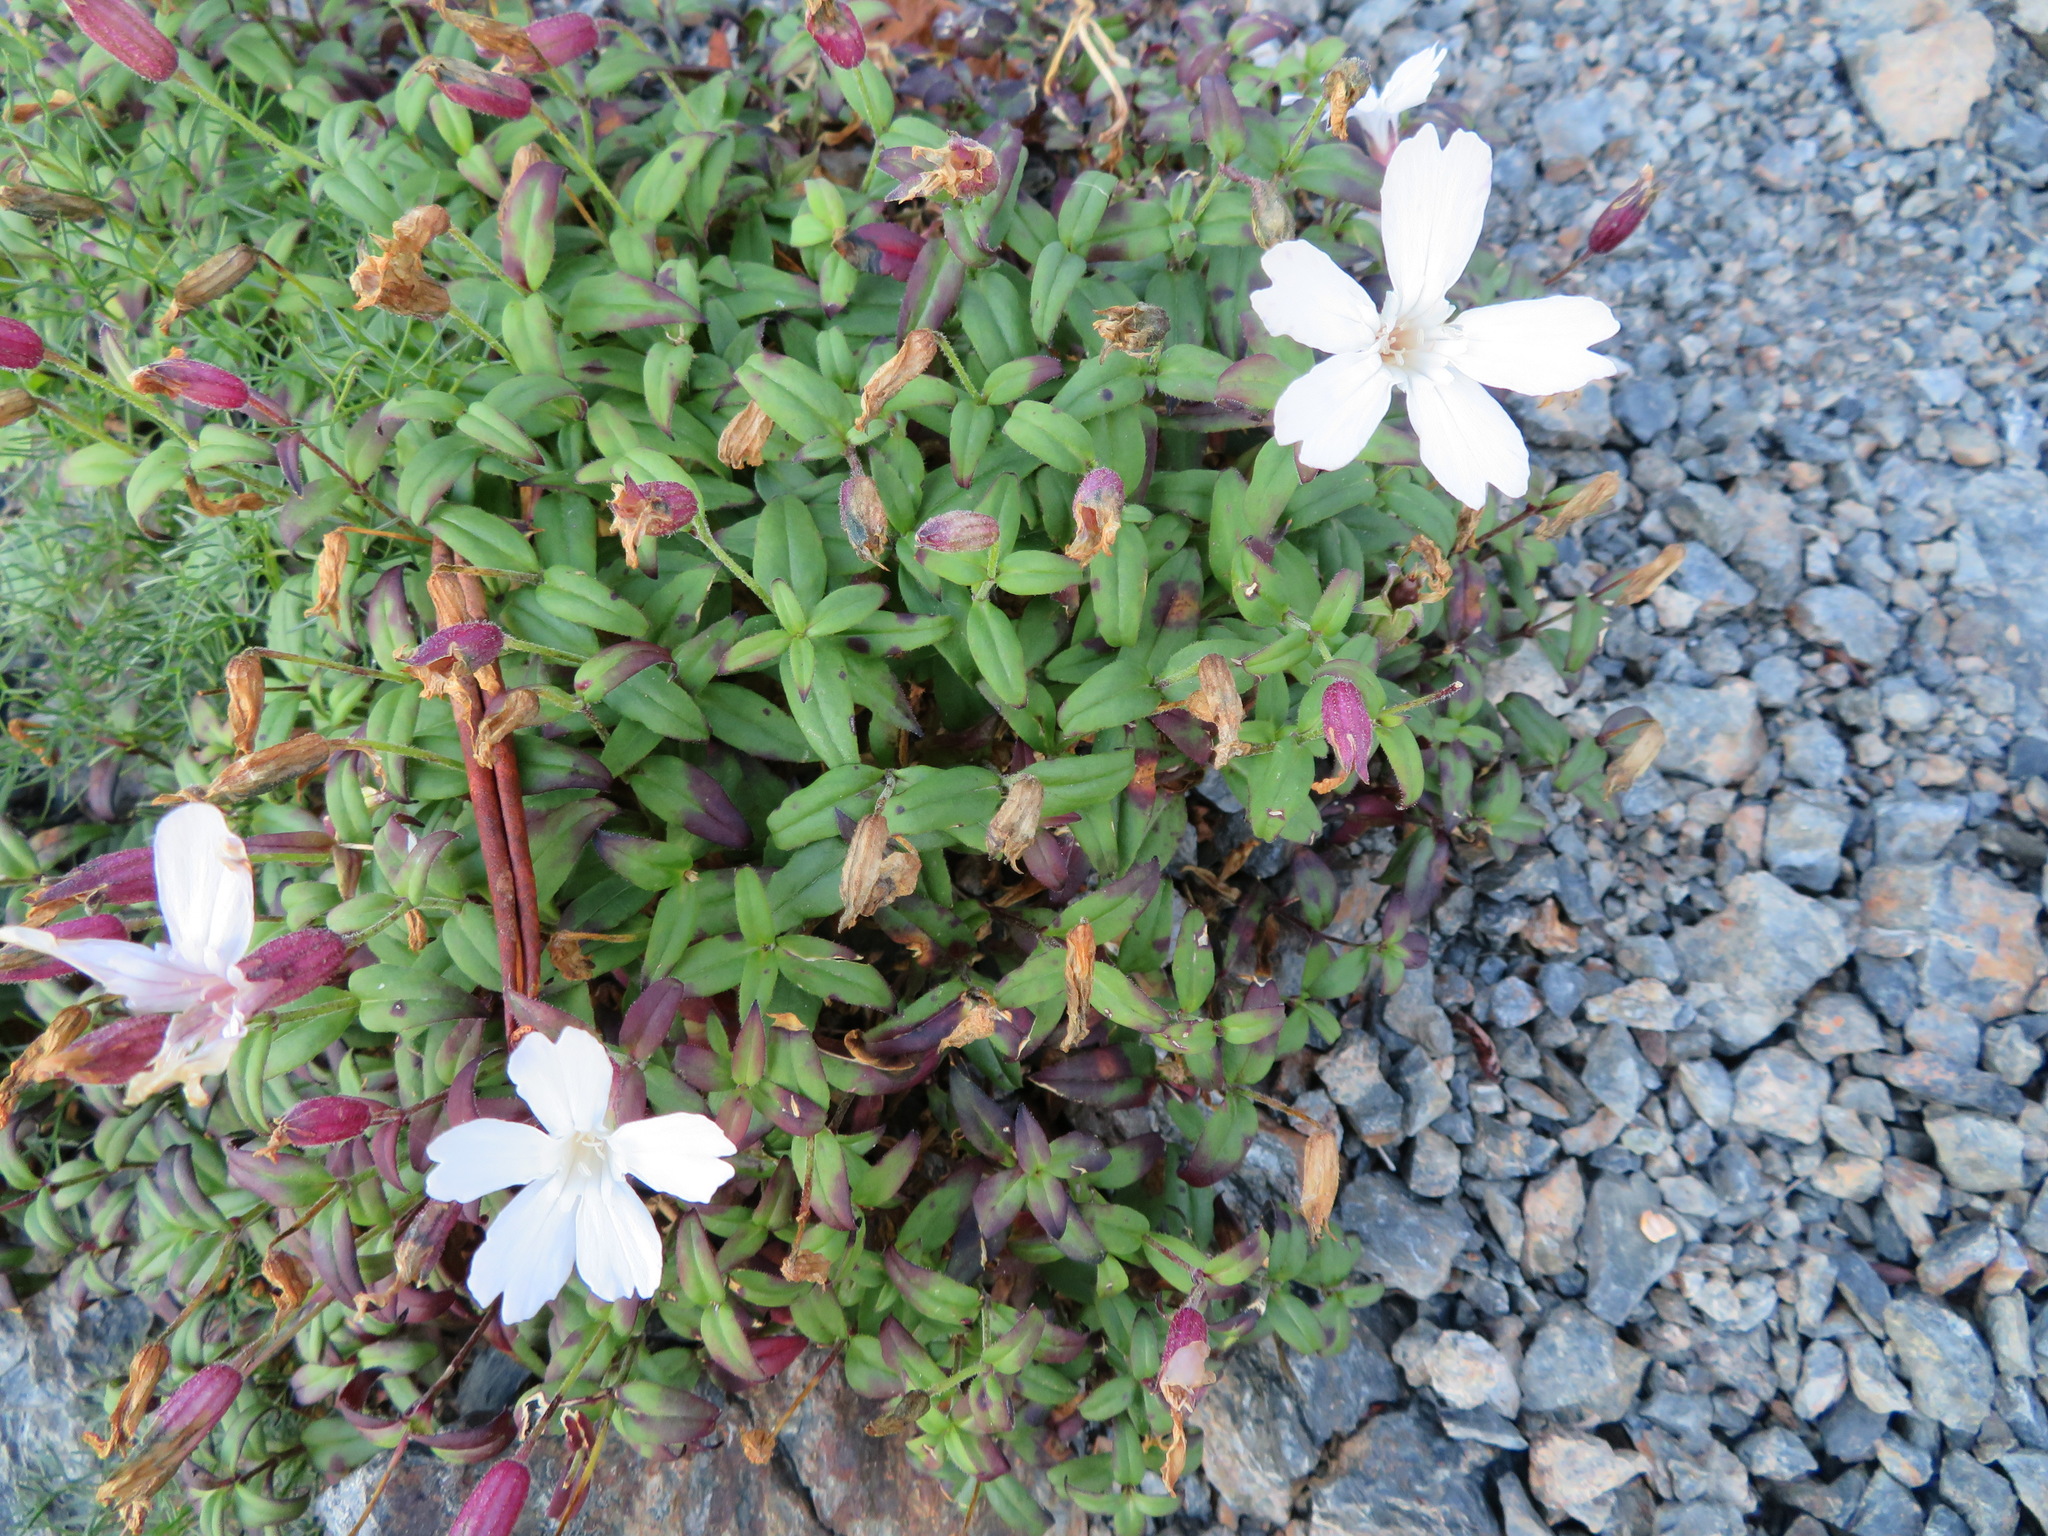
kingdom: Plantae
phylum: Tracheophyta
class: Magnoliopsida
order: Caryophyllales
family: Caryophyllaceae
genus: Silene
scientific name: Silene akaisialpina
